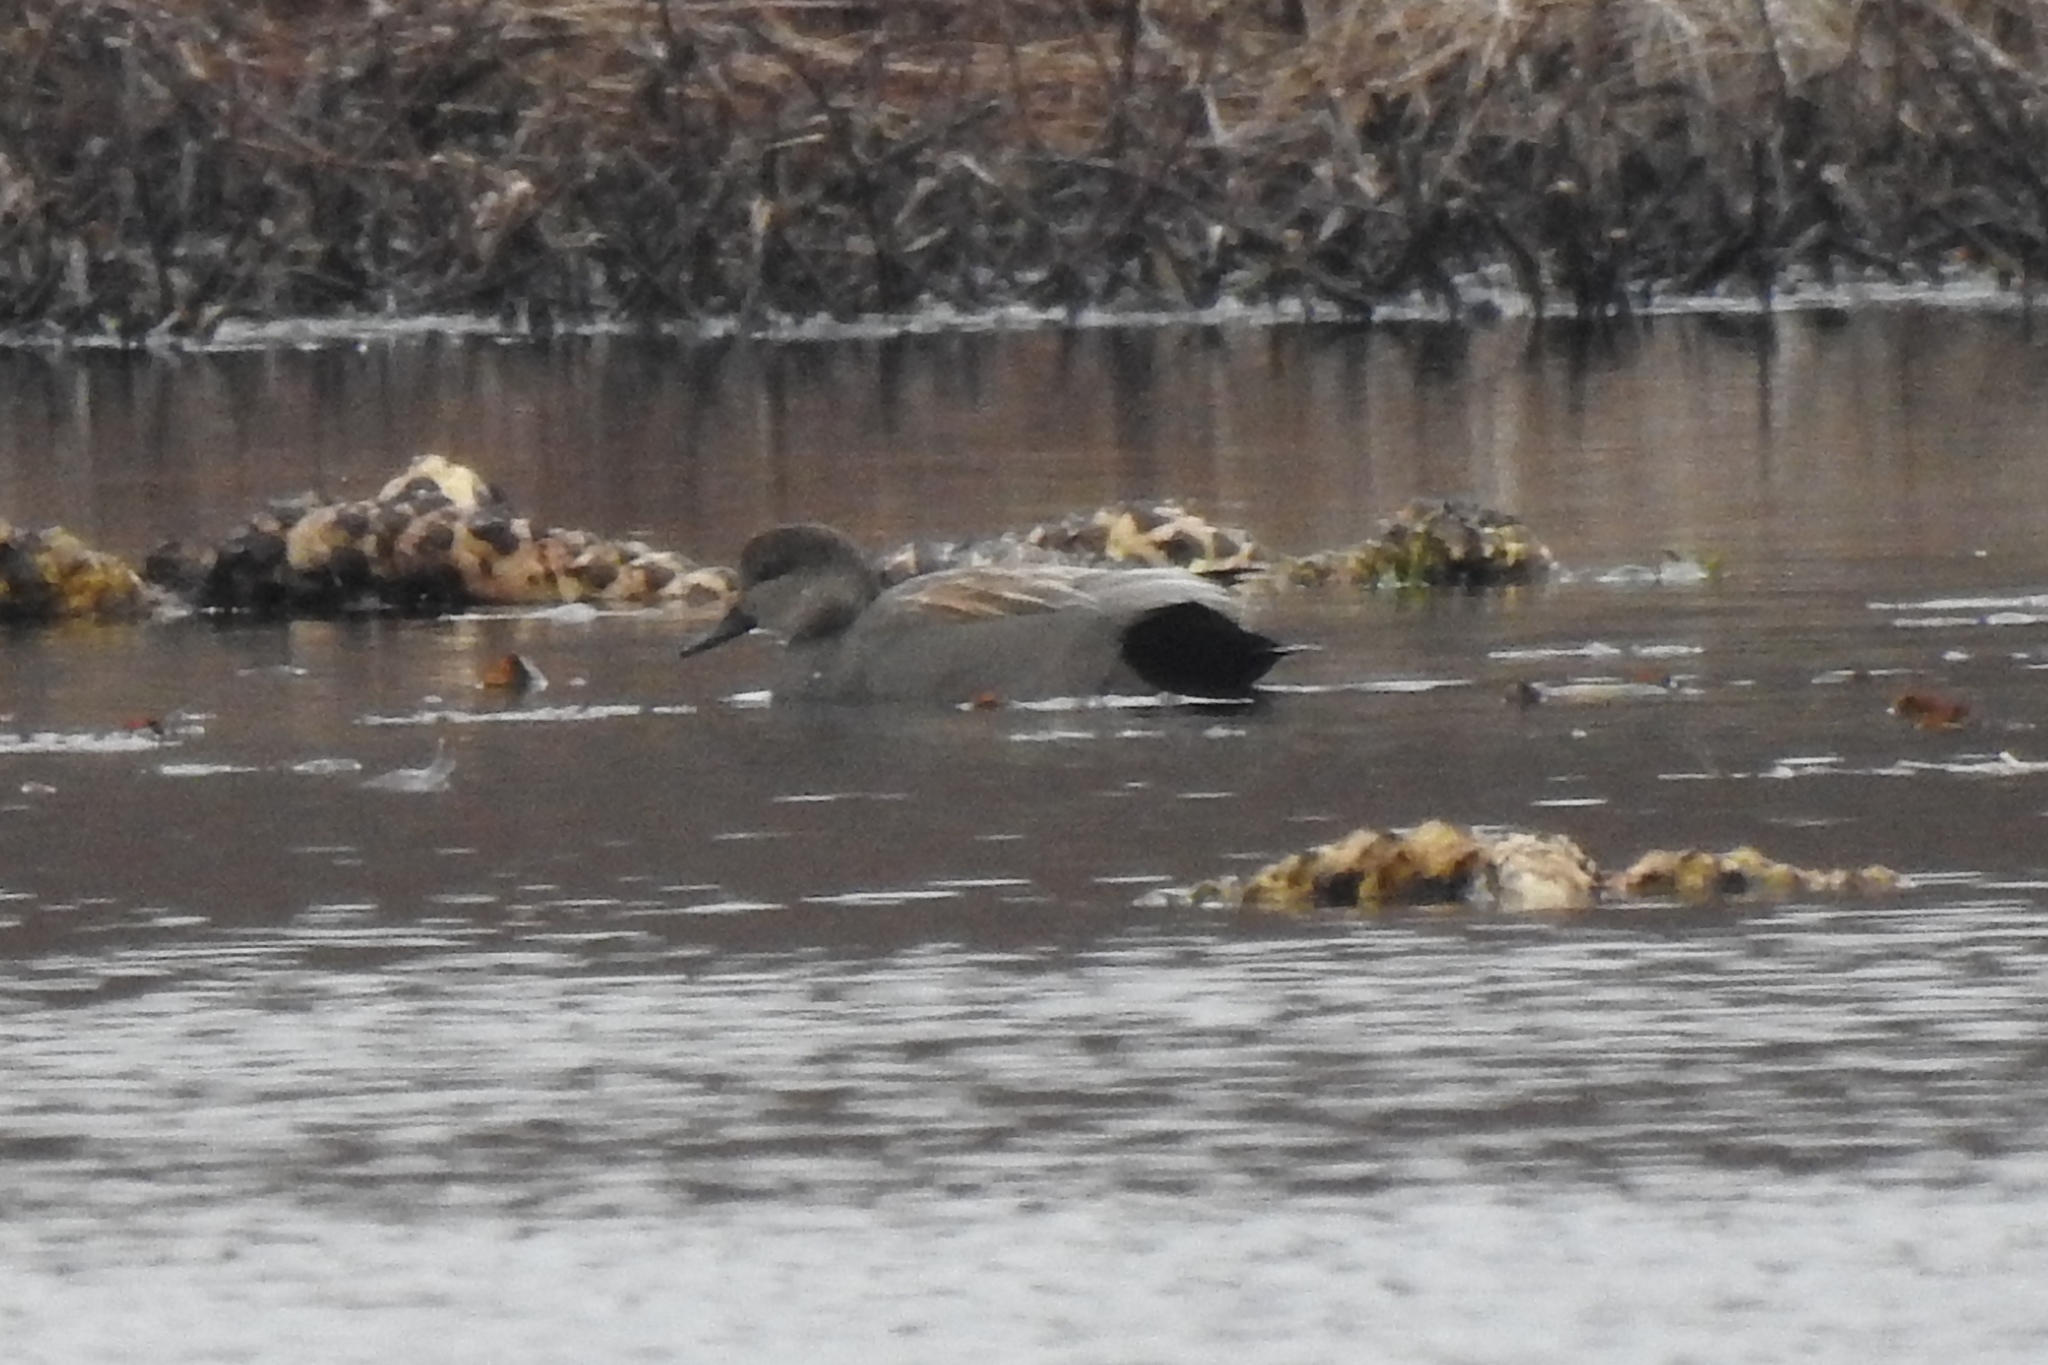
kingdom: Animalia
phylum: Chordata
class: Aves
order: Anseriformes
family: Anatidae
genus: Mareca
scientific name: Mareca strepera
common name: Gadwall
